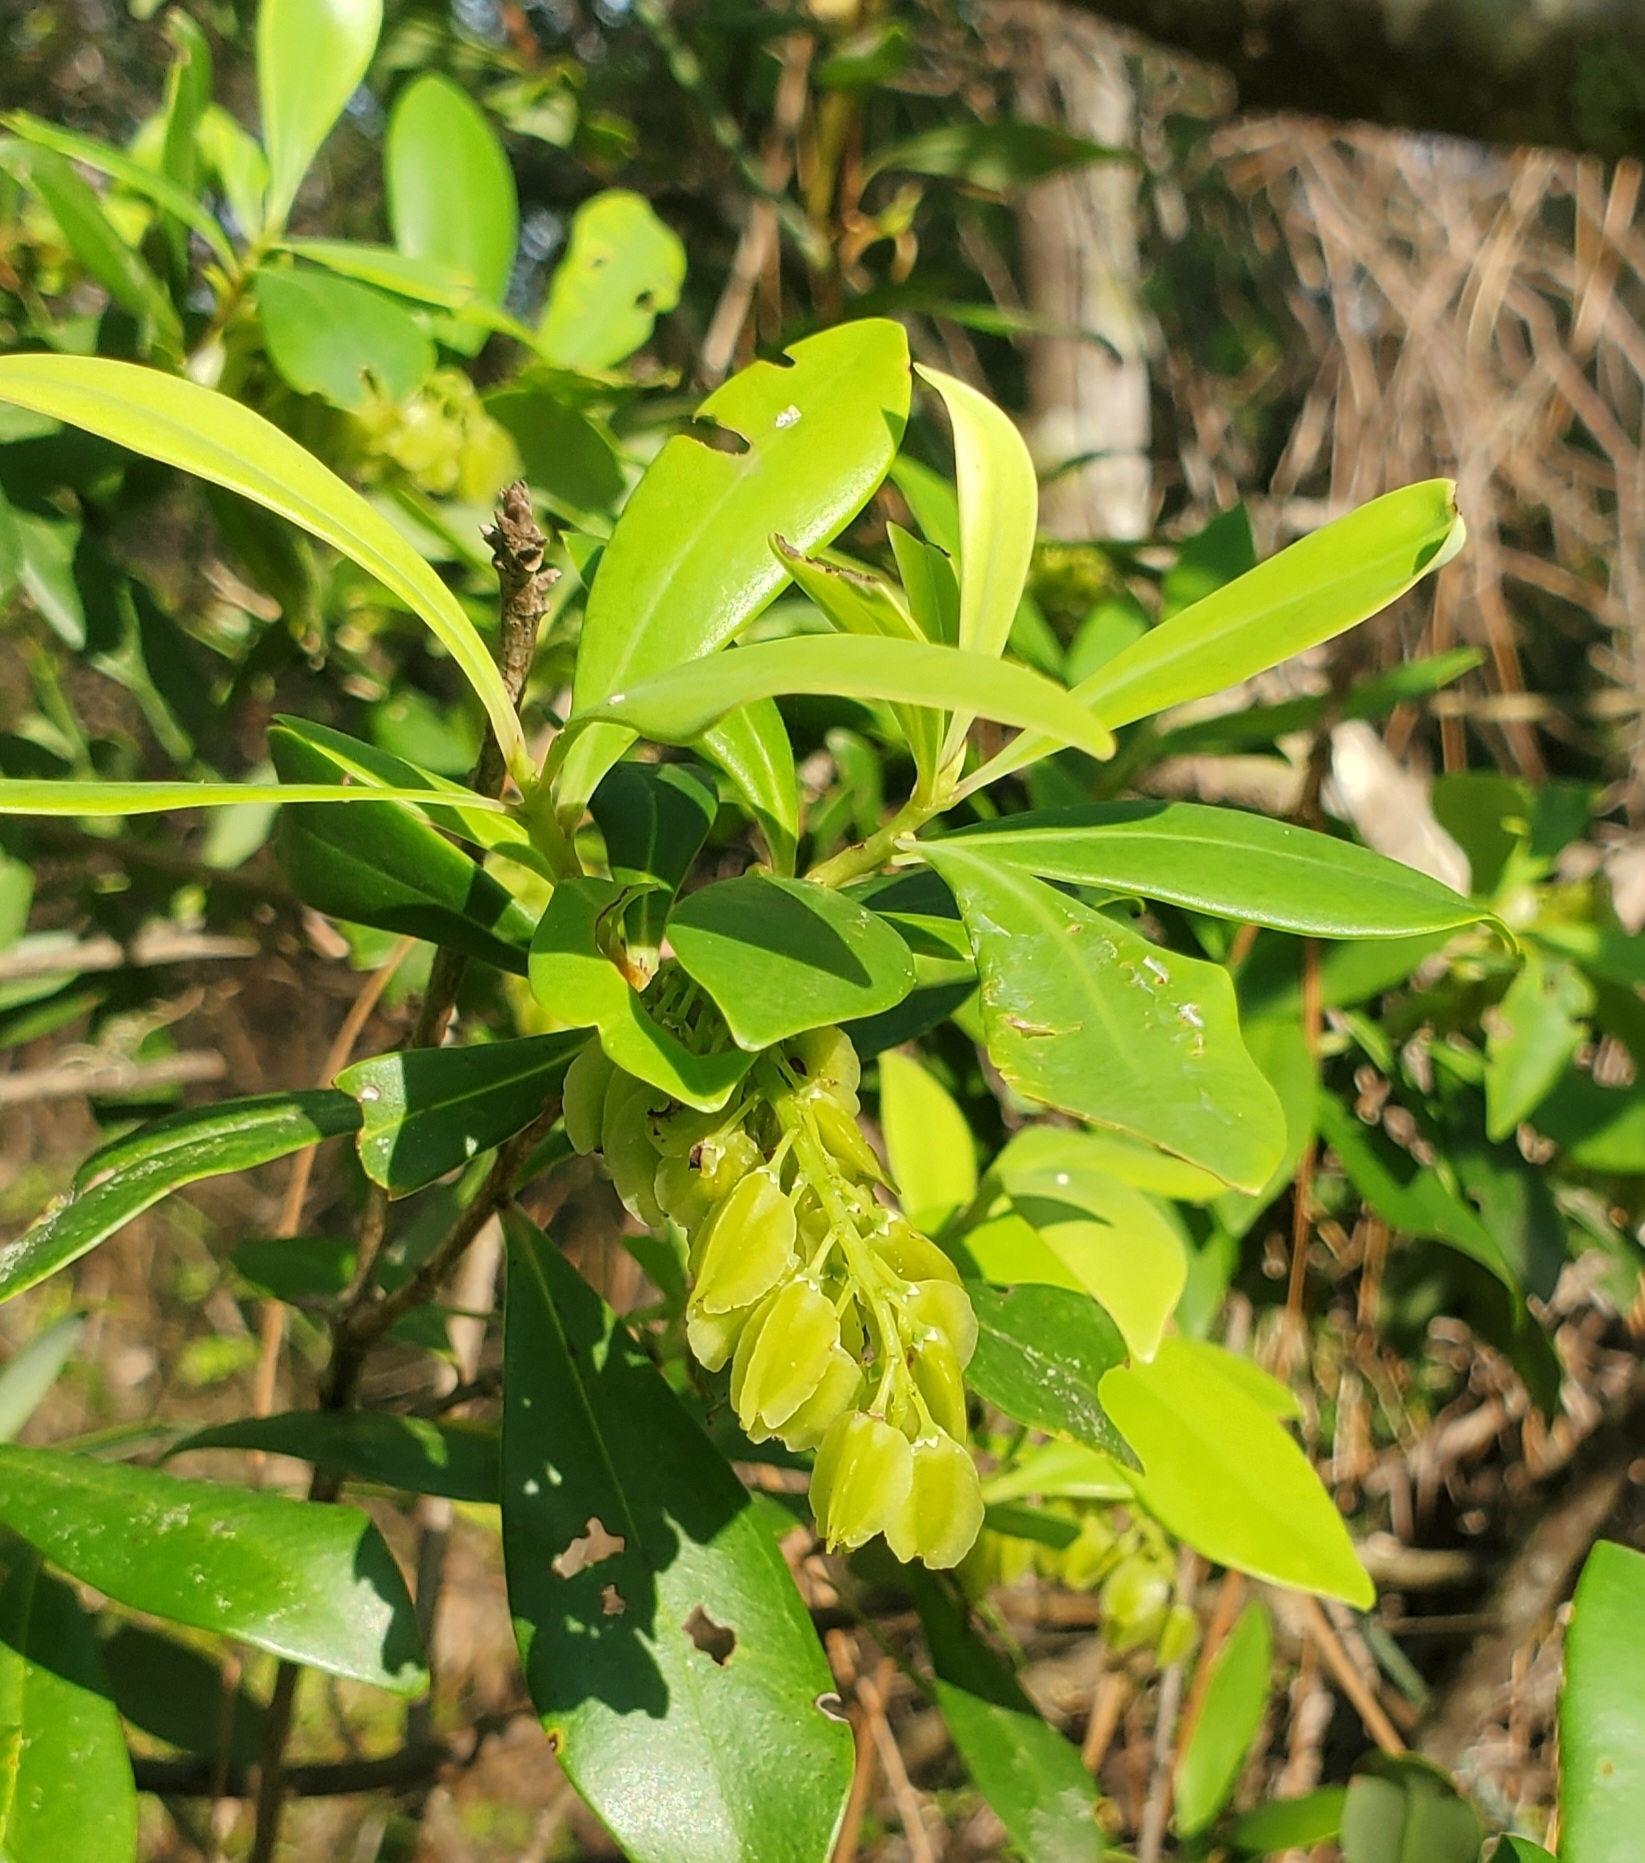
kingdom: Plantae
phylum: Tracheophyta
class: Magnoliopsida
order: Ericales
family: Cyrillaceae
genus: Cliftonia
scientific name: Cliftonia monophylla
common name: Titi
